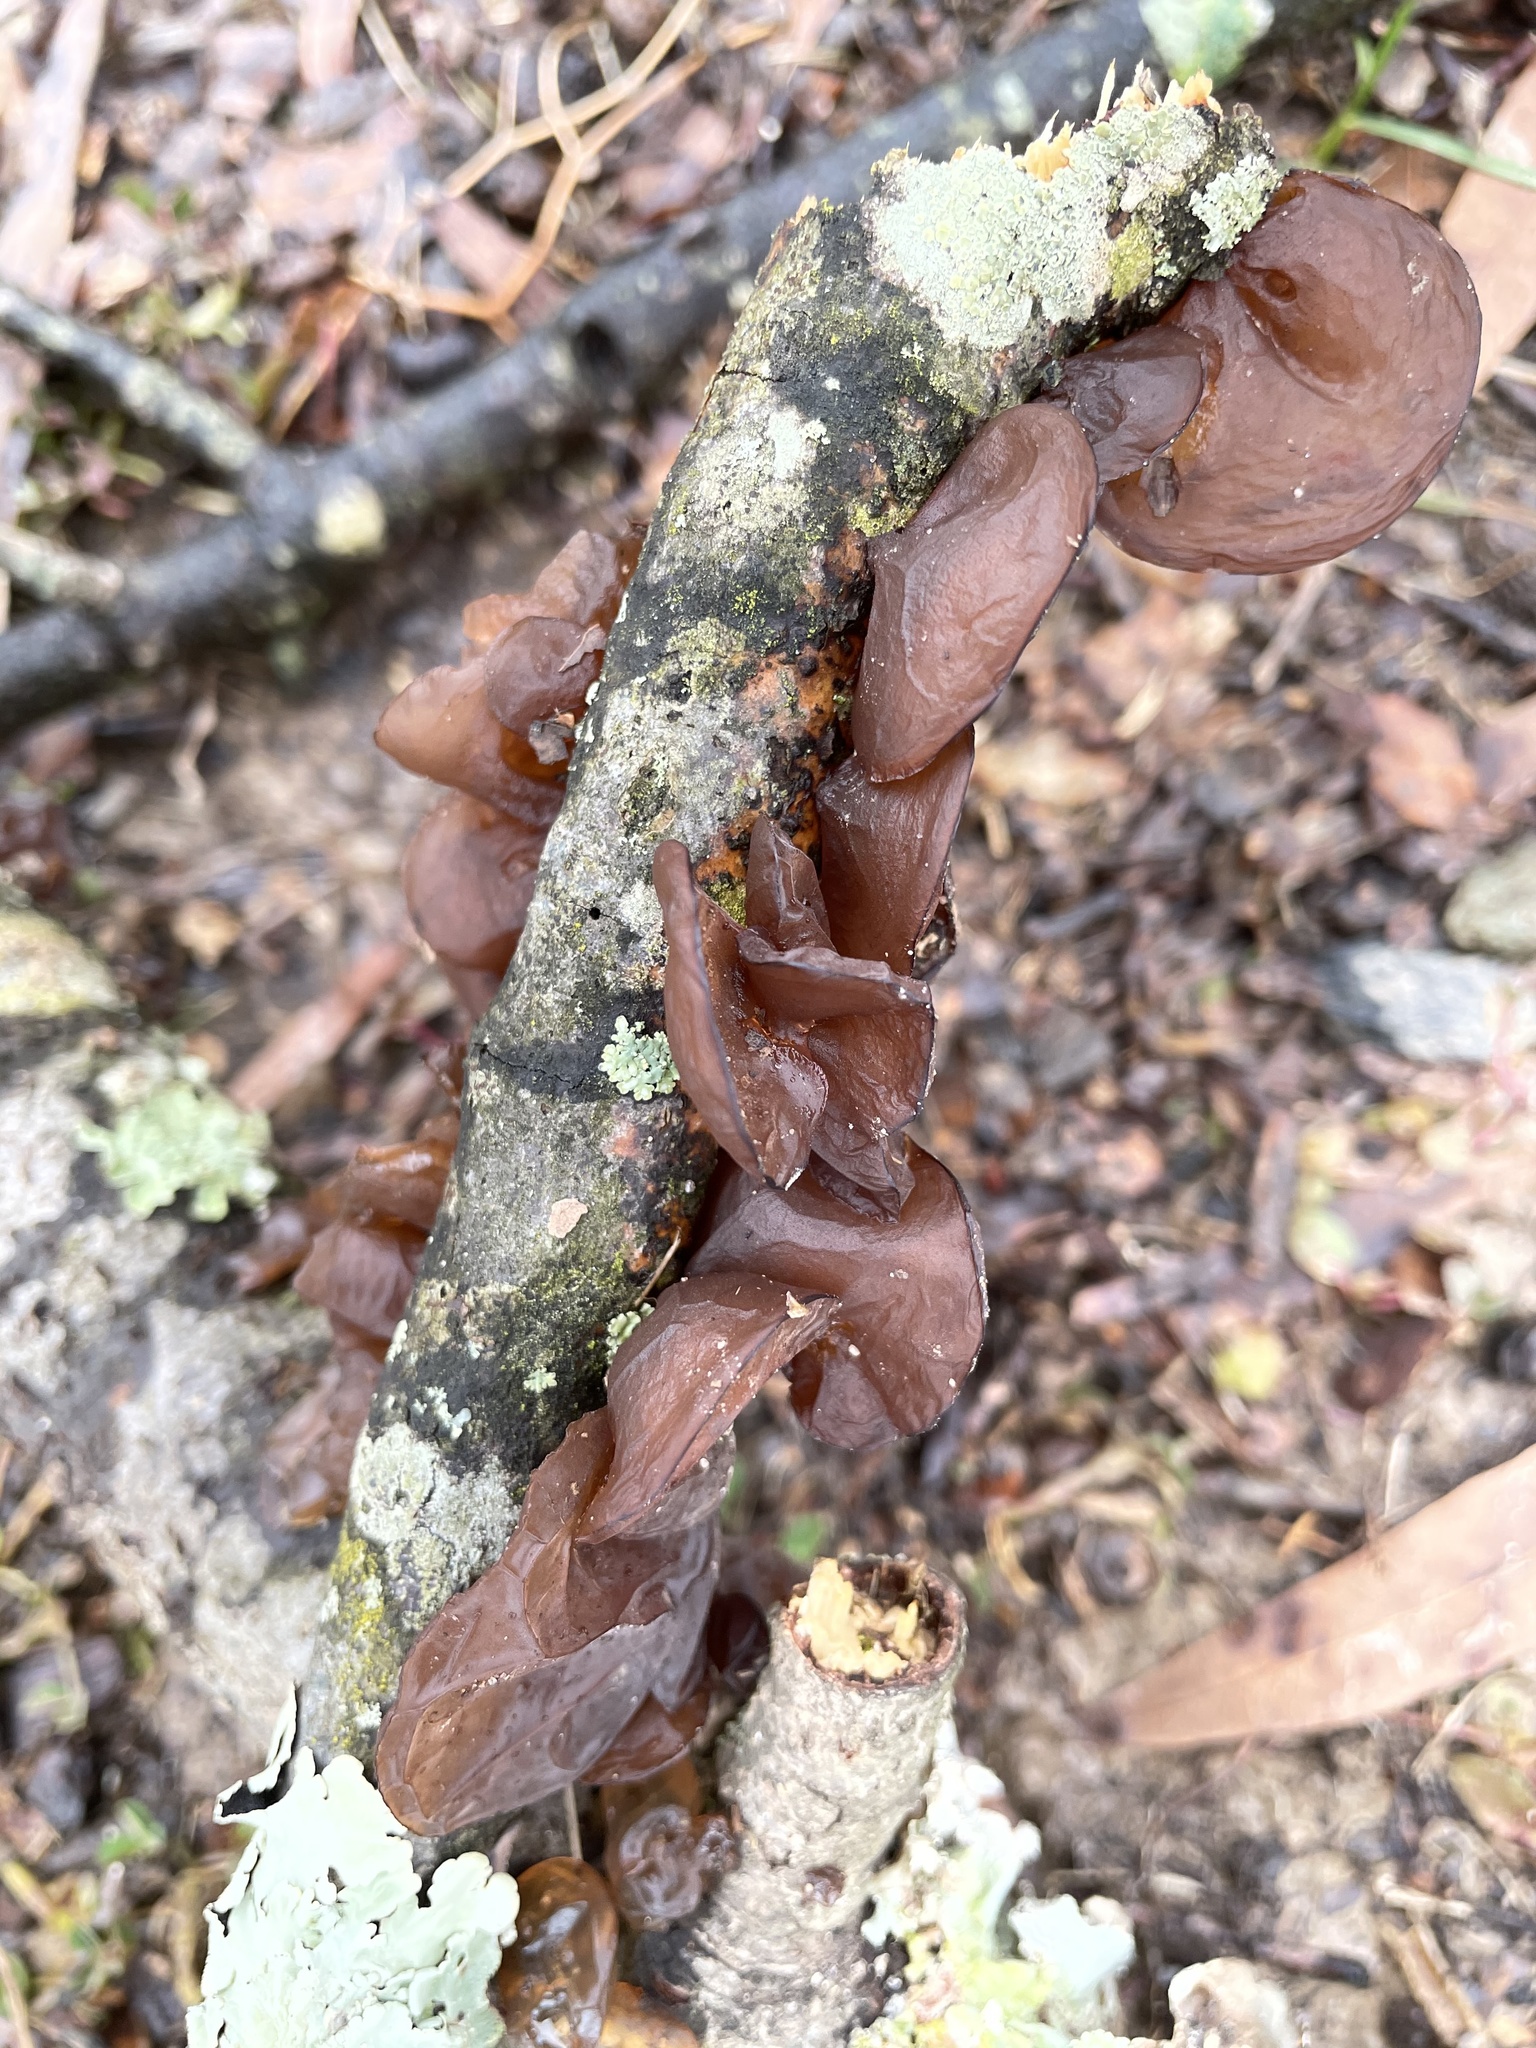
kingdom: Fungi
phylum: Basidiomycota
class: Agaricomycetes
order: Auriculariales
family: Auriculariaceae
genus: Exidia
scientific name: Exidia
